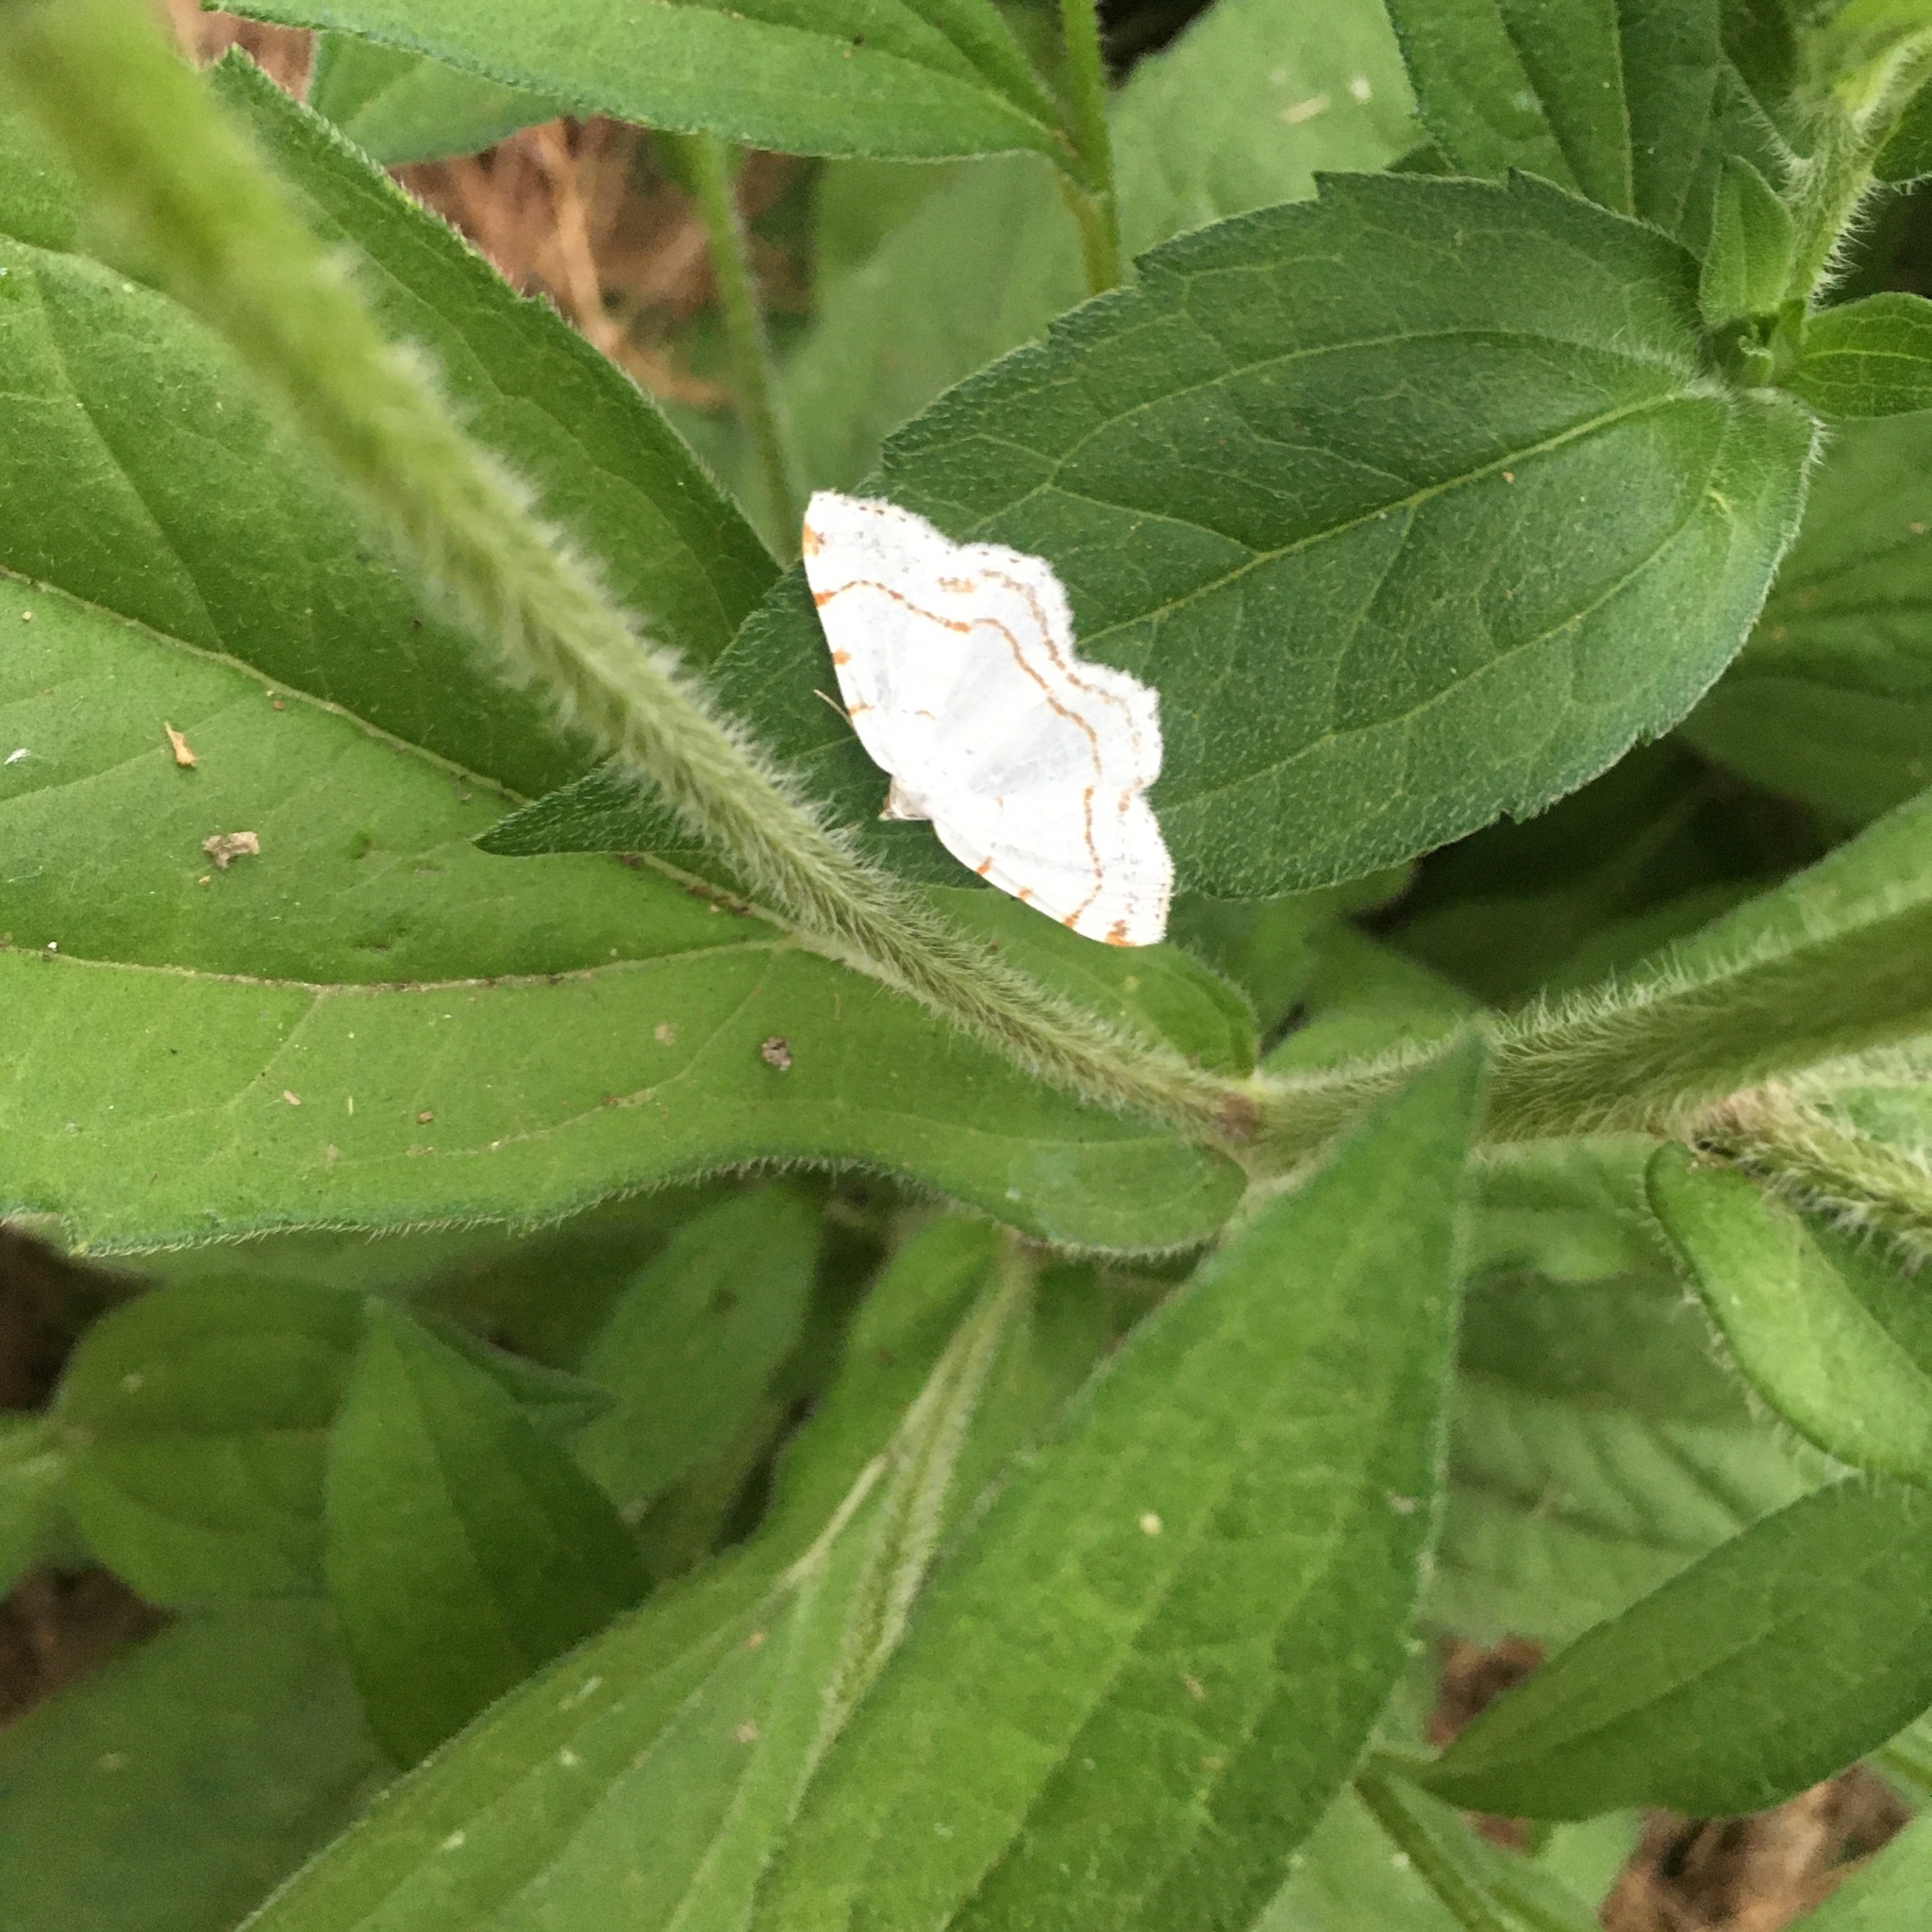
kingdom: Animalia
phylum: Arthropoda
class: Insecta
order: Lepidoptera
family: Geometridae
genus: Macaria
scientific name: Macaria pustularia
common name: Lesser maple spanworm moth
